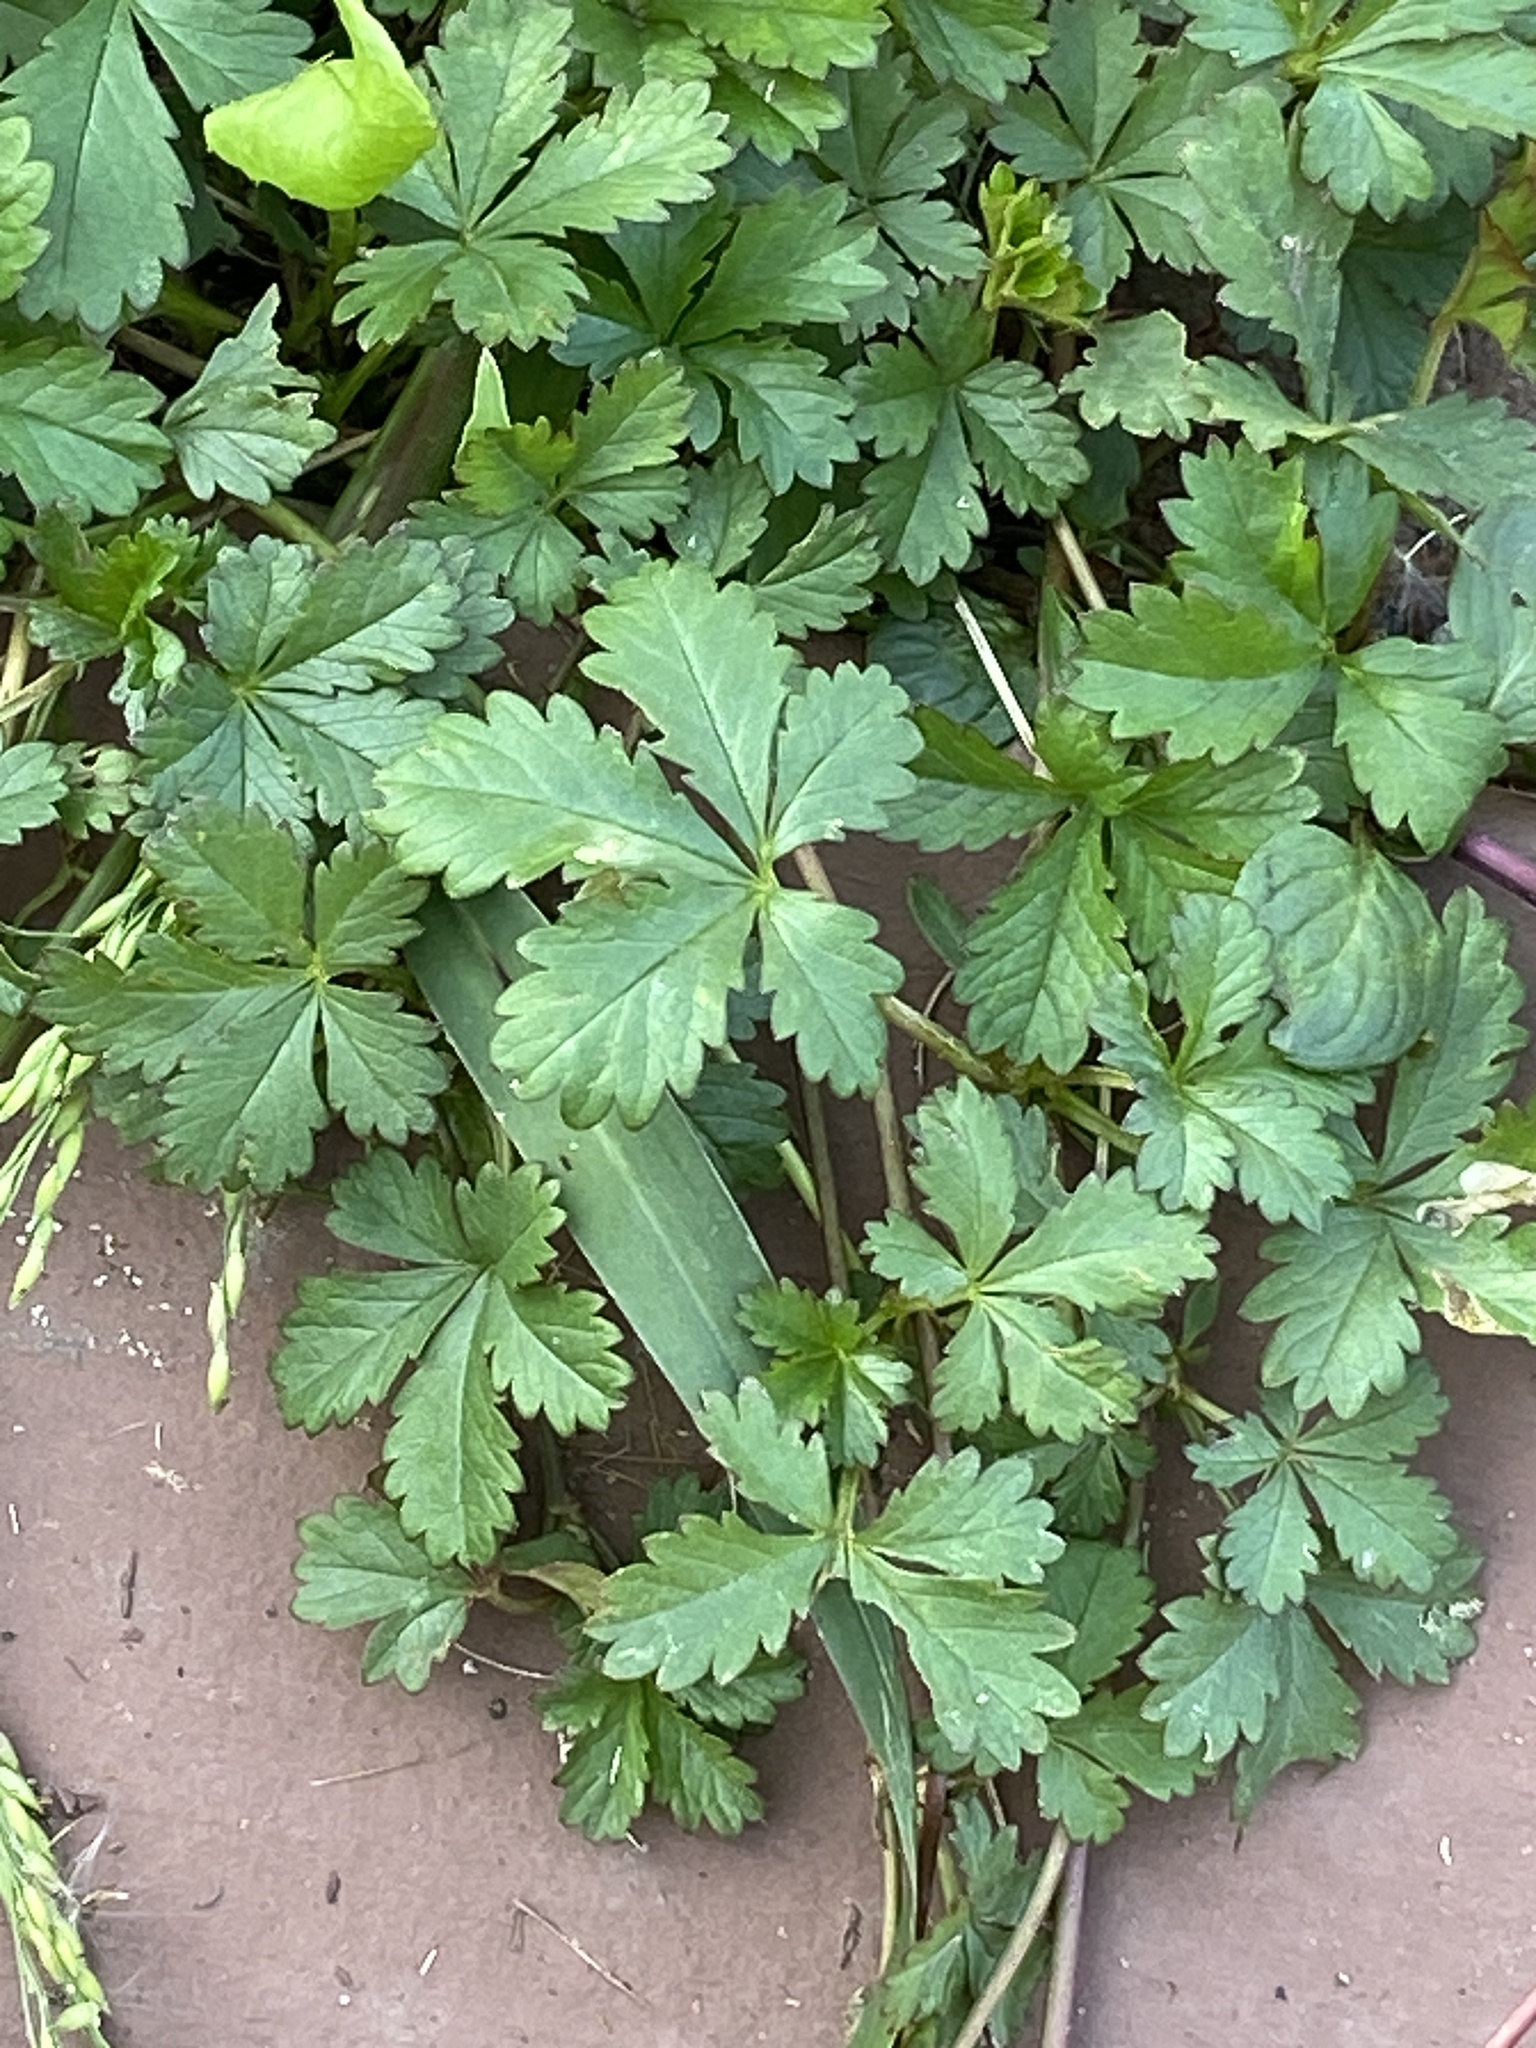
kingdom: Plantae
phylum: Tracheophyta
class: Magnoliopsida
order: Rosales
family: Rosaceae
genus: Potentilla
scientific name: Potentilla reptans
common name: Creeping cinquefoil
